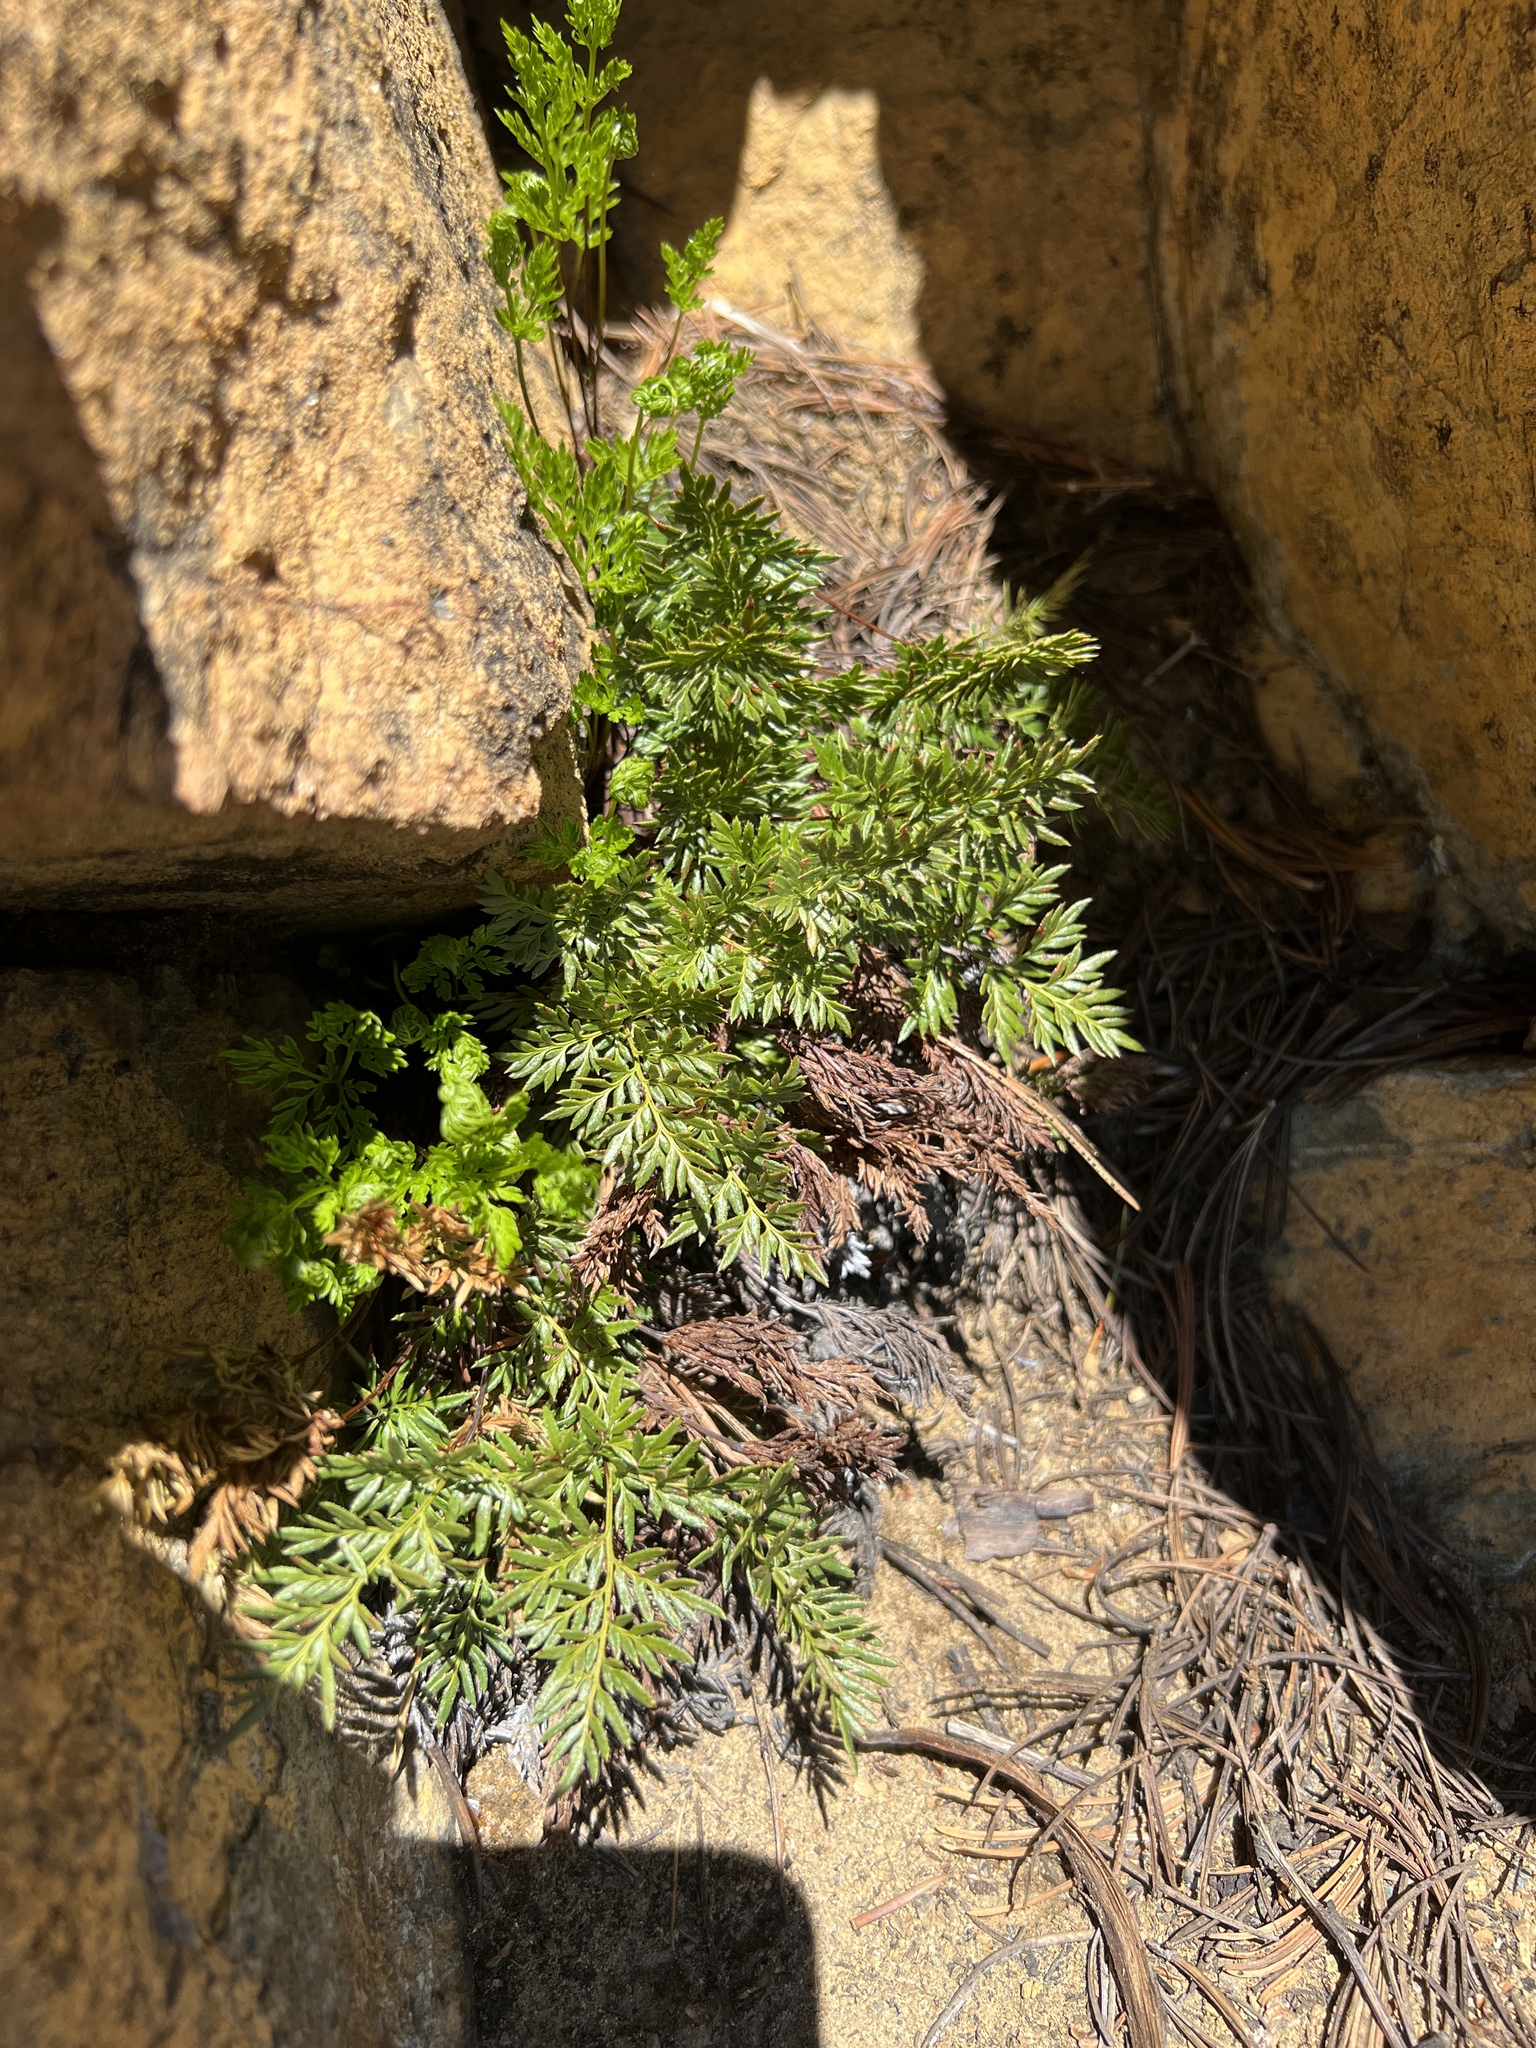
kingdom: Plantae
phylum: Tracheophyta
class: Polypodiopsida
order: Polypodiales
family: Pteridaceae
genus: Aspidotis
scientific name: Aspidotis densa
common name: Indian's dream
